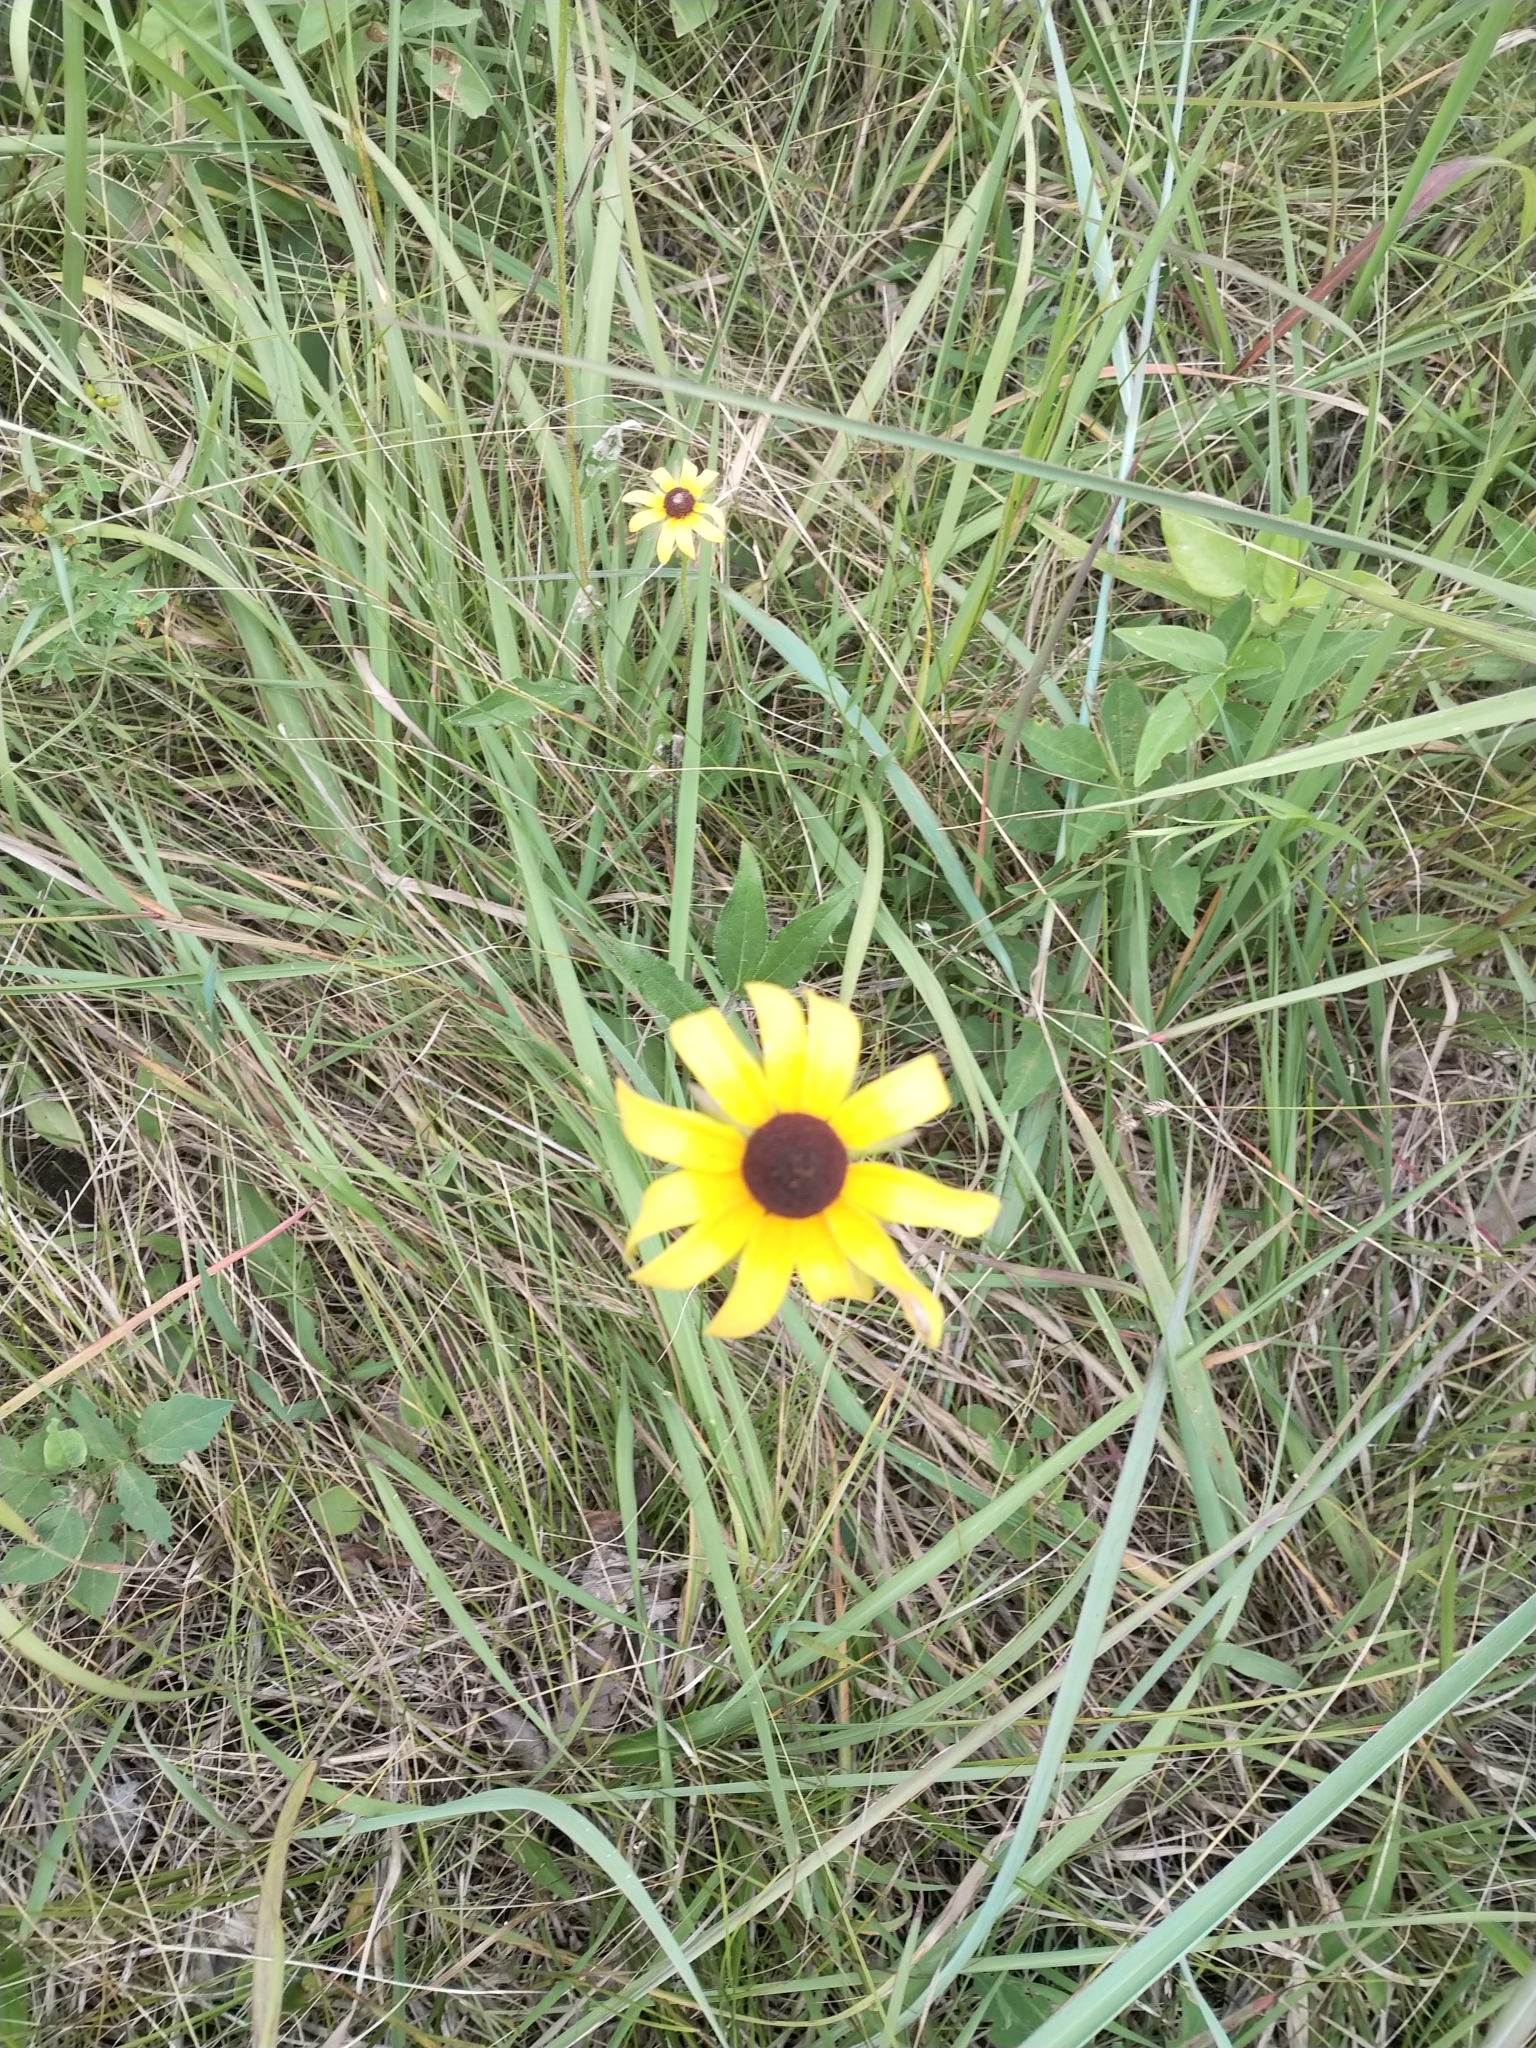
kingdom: Plantae
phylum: Tracheophyta
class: Magnoliopsida
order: Asterales
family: Asteraceae
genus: Rudbeckia
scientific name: Rudbeckia hirta
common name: Black-eyed-susan
